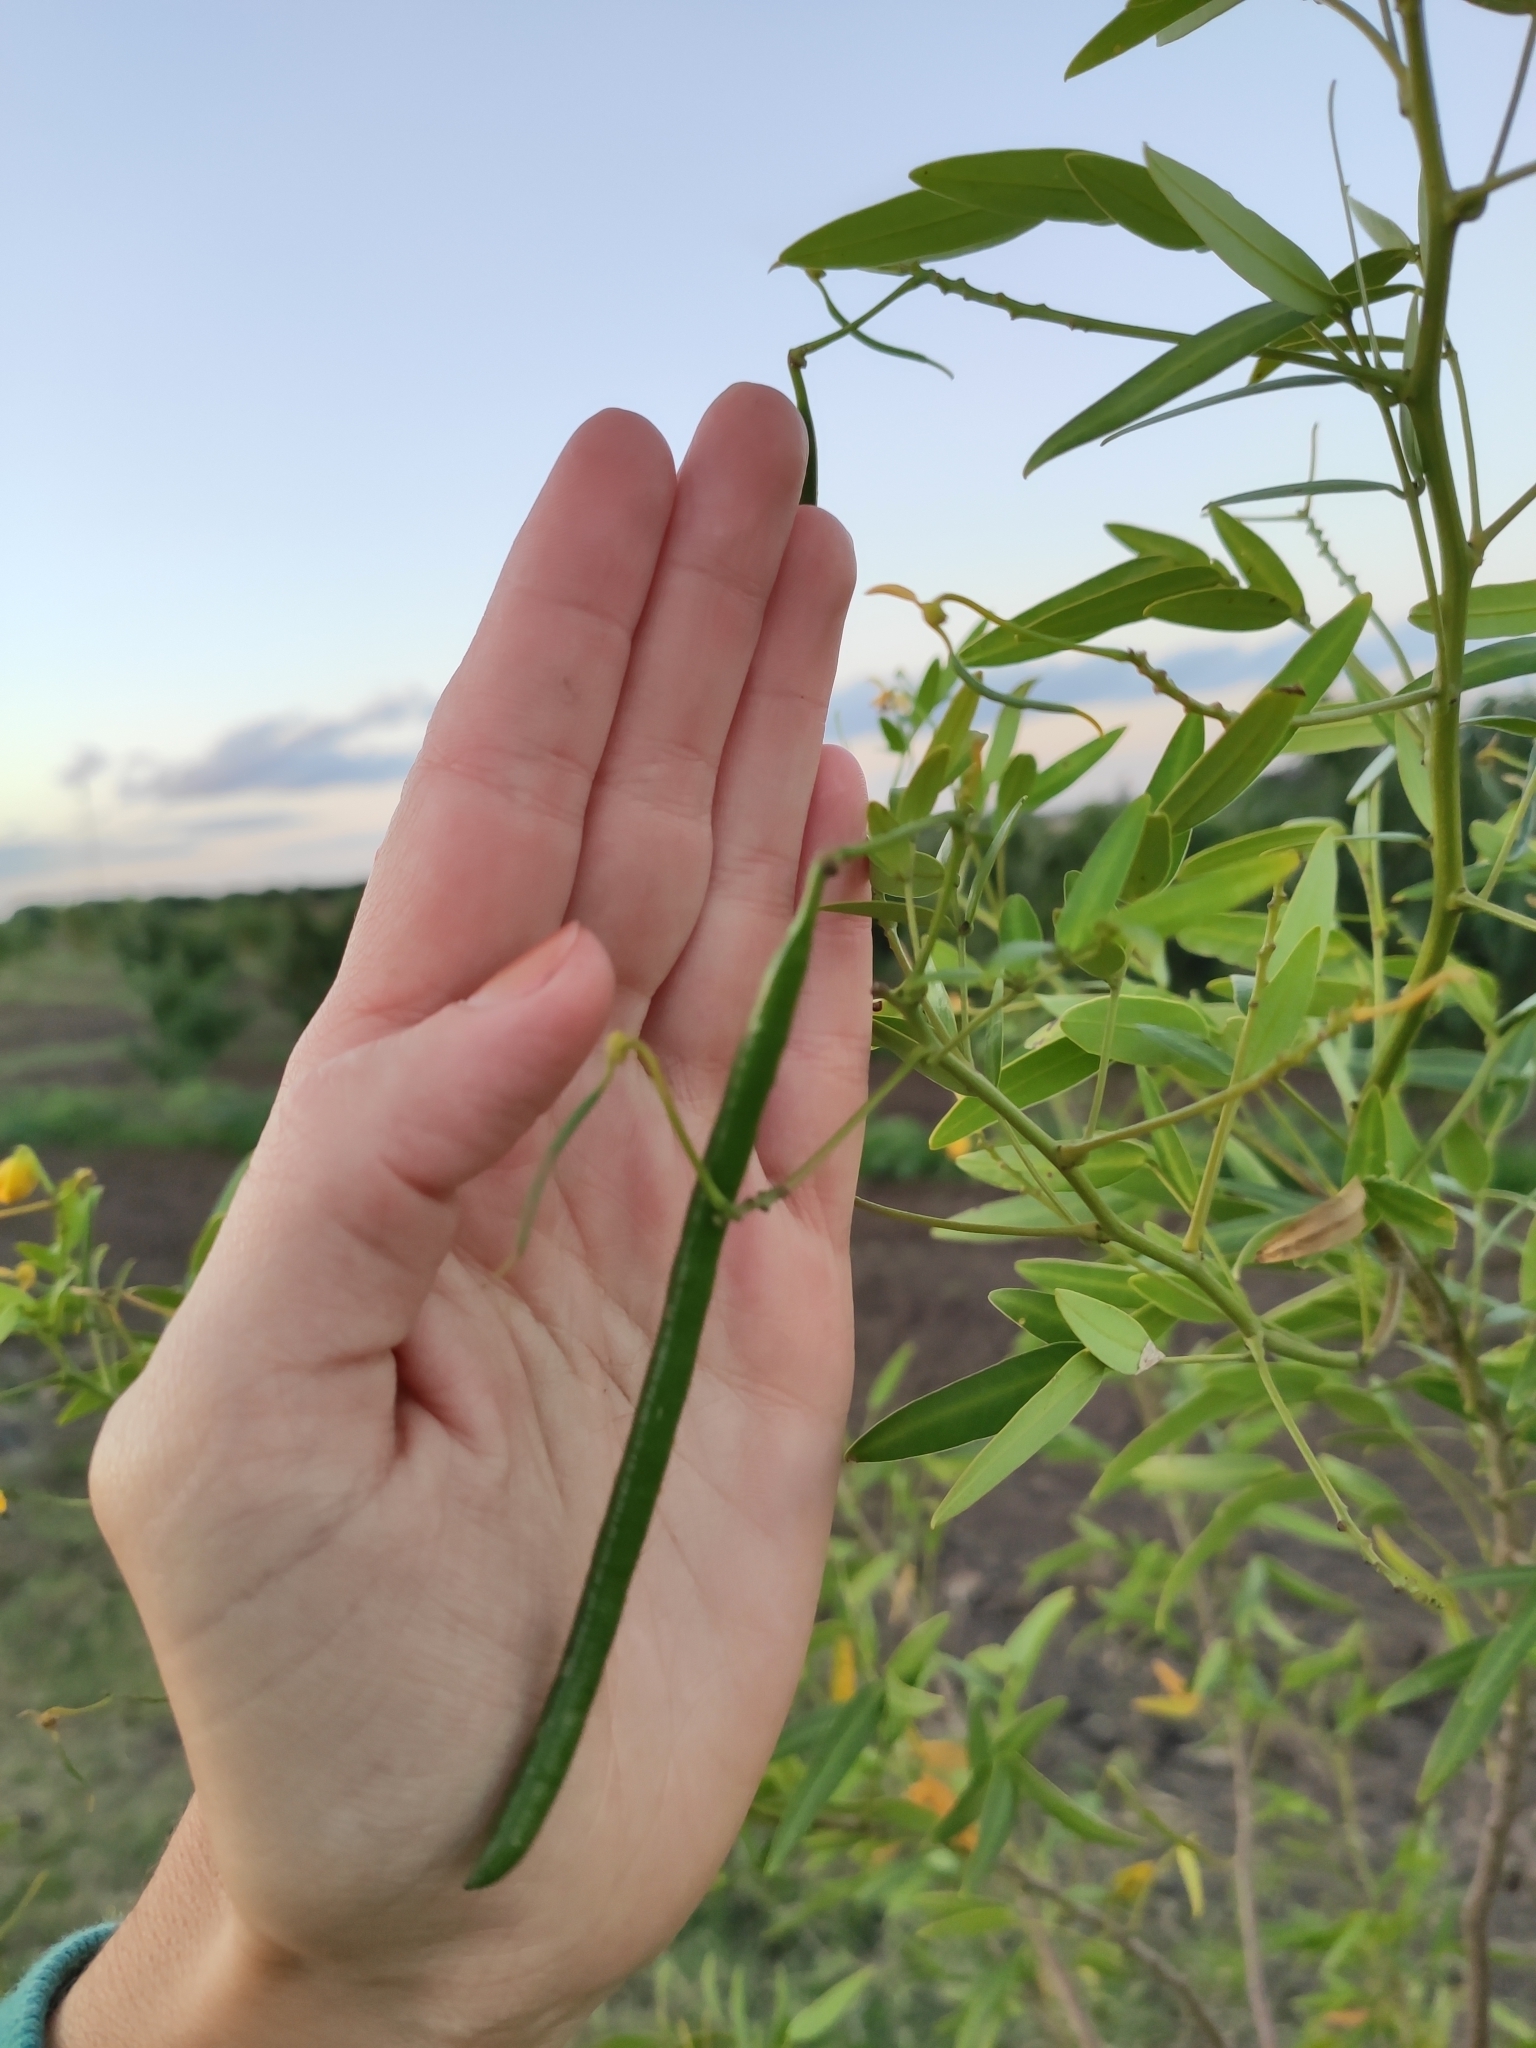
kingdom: Plantae
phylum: Tracheophyta
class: Magnoliopsida
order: Fabales
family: Fabaceae
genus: Senna
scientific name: Senna corymbosa
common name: Argentine senna
